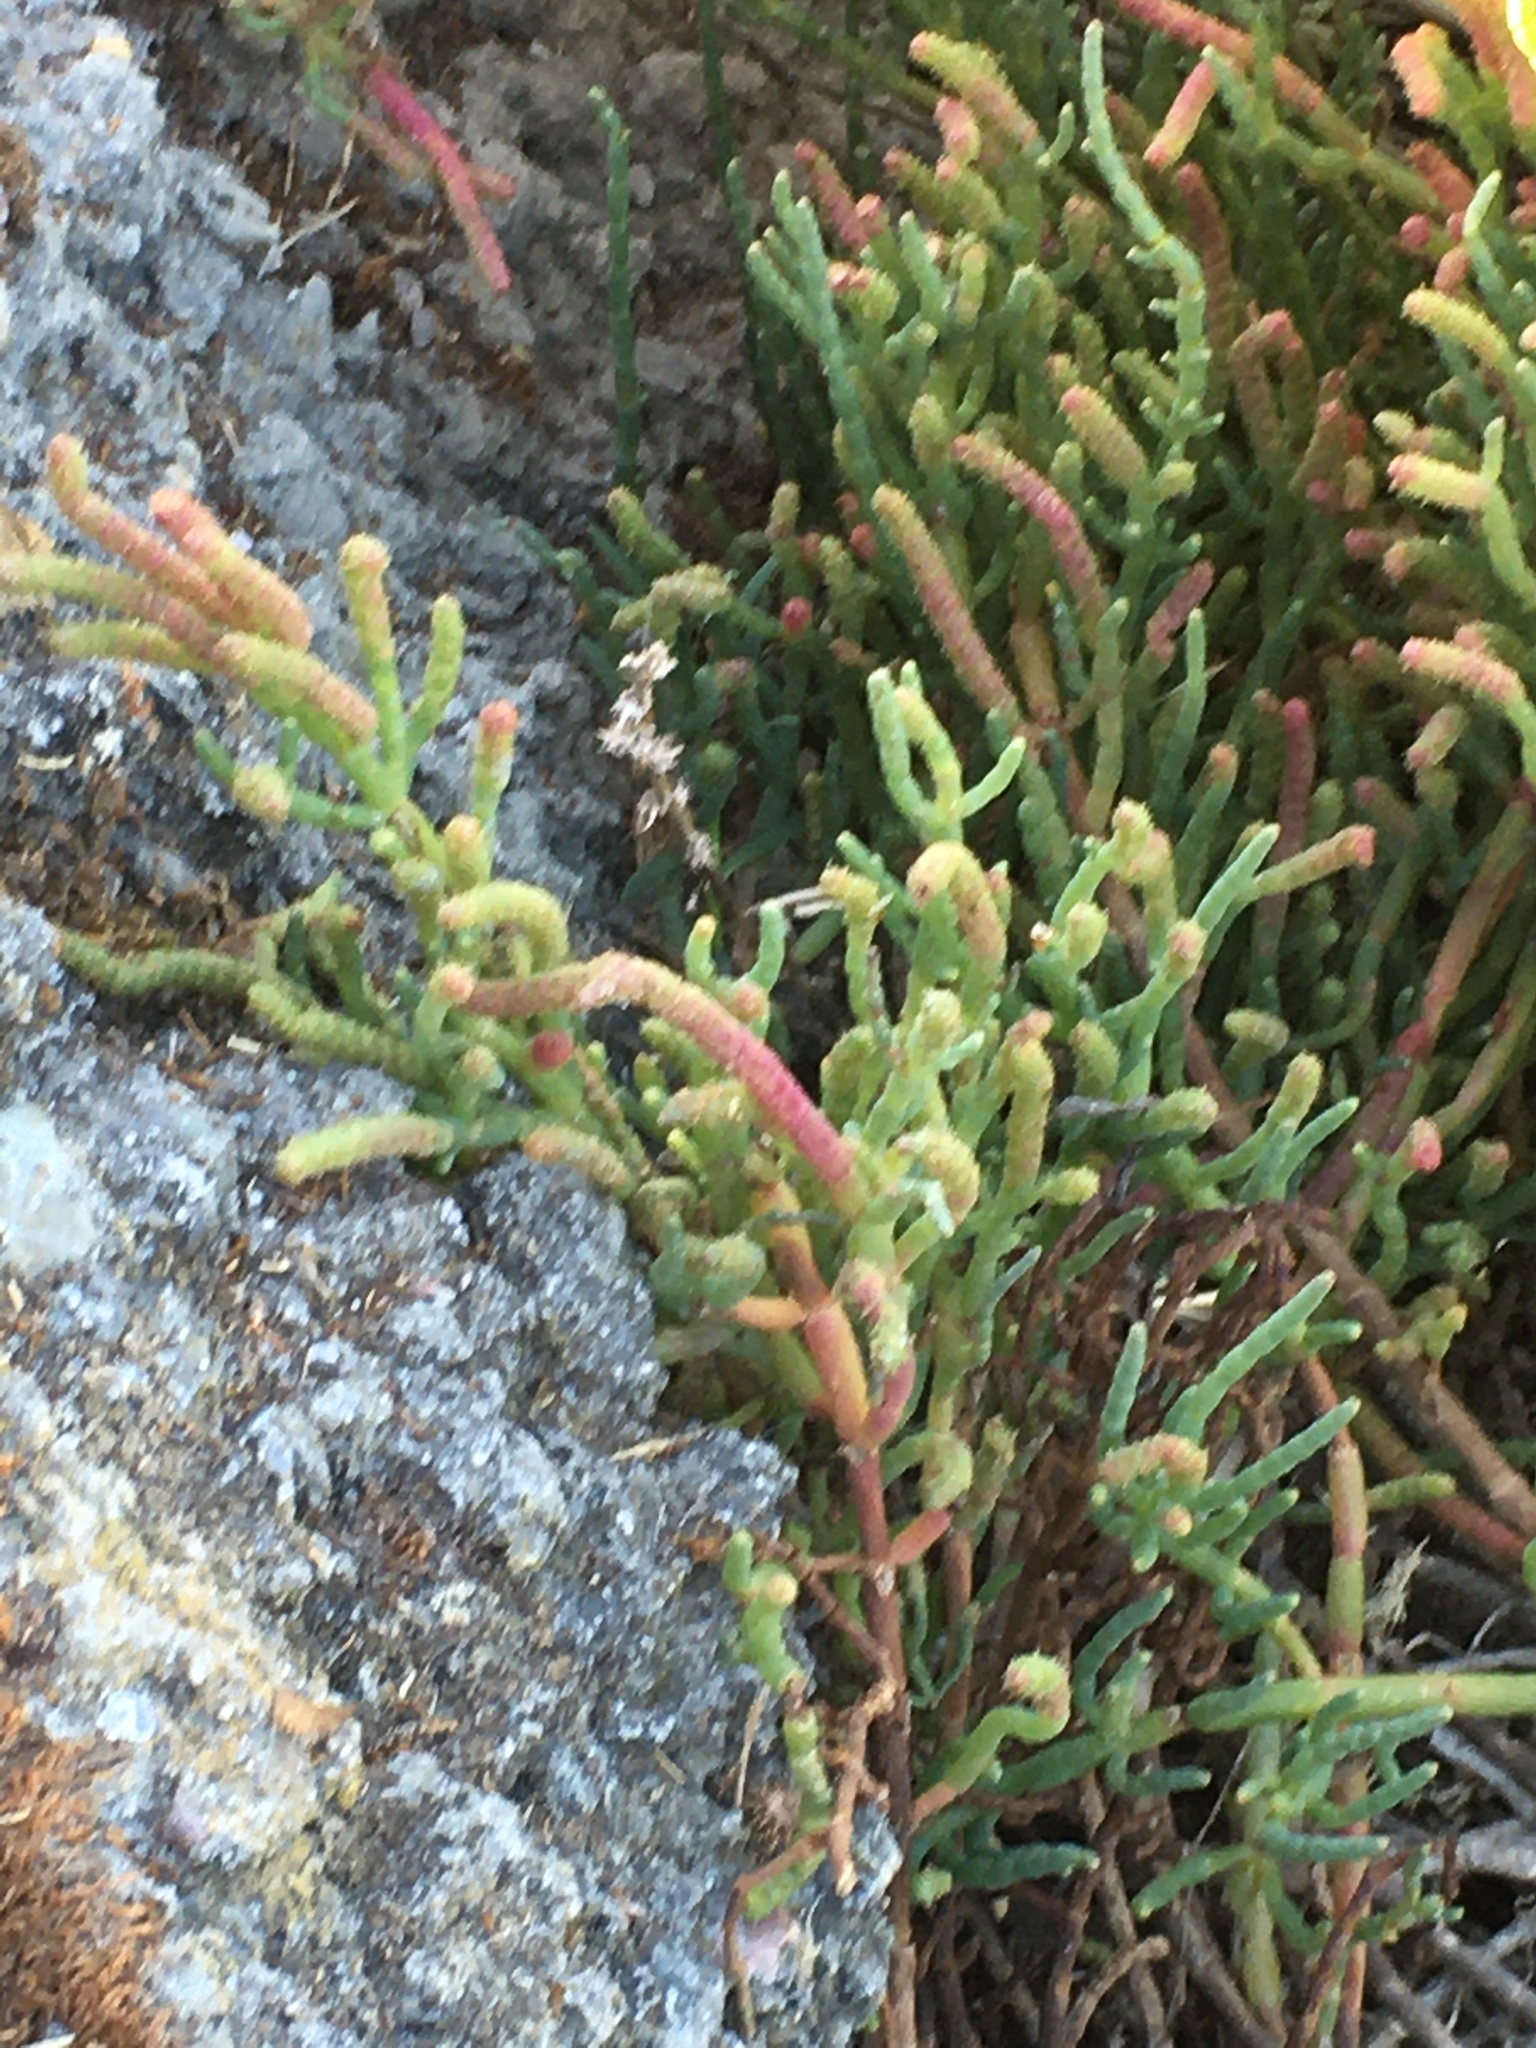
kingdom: Plantae
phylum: Tracheophyta
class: Magnoliopsida
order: Caryophyllales
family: Amaranthaceae
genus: Salicornia
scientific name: Salicornia pacifica
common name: Pacific glasswort
